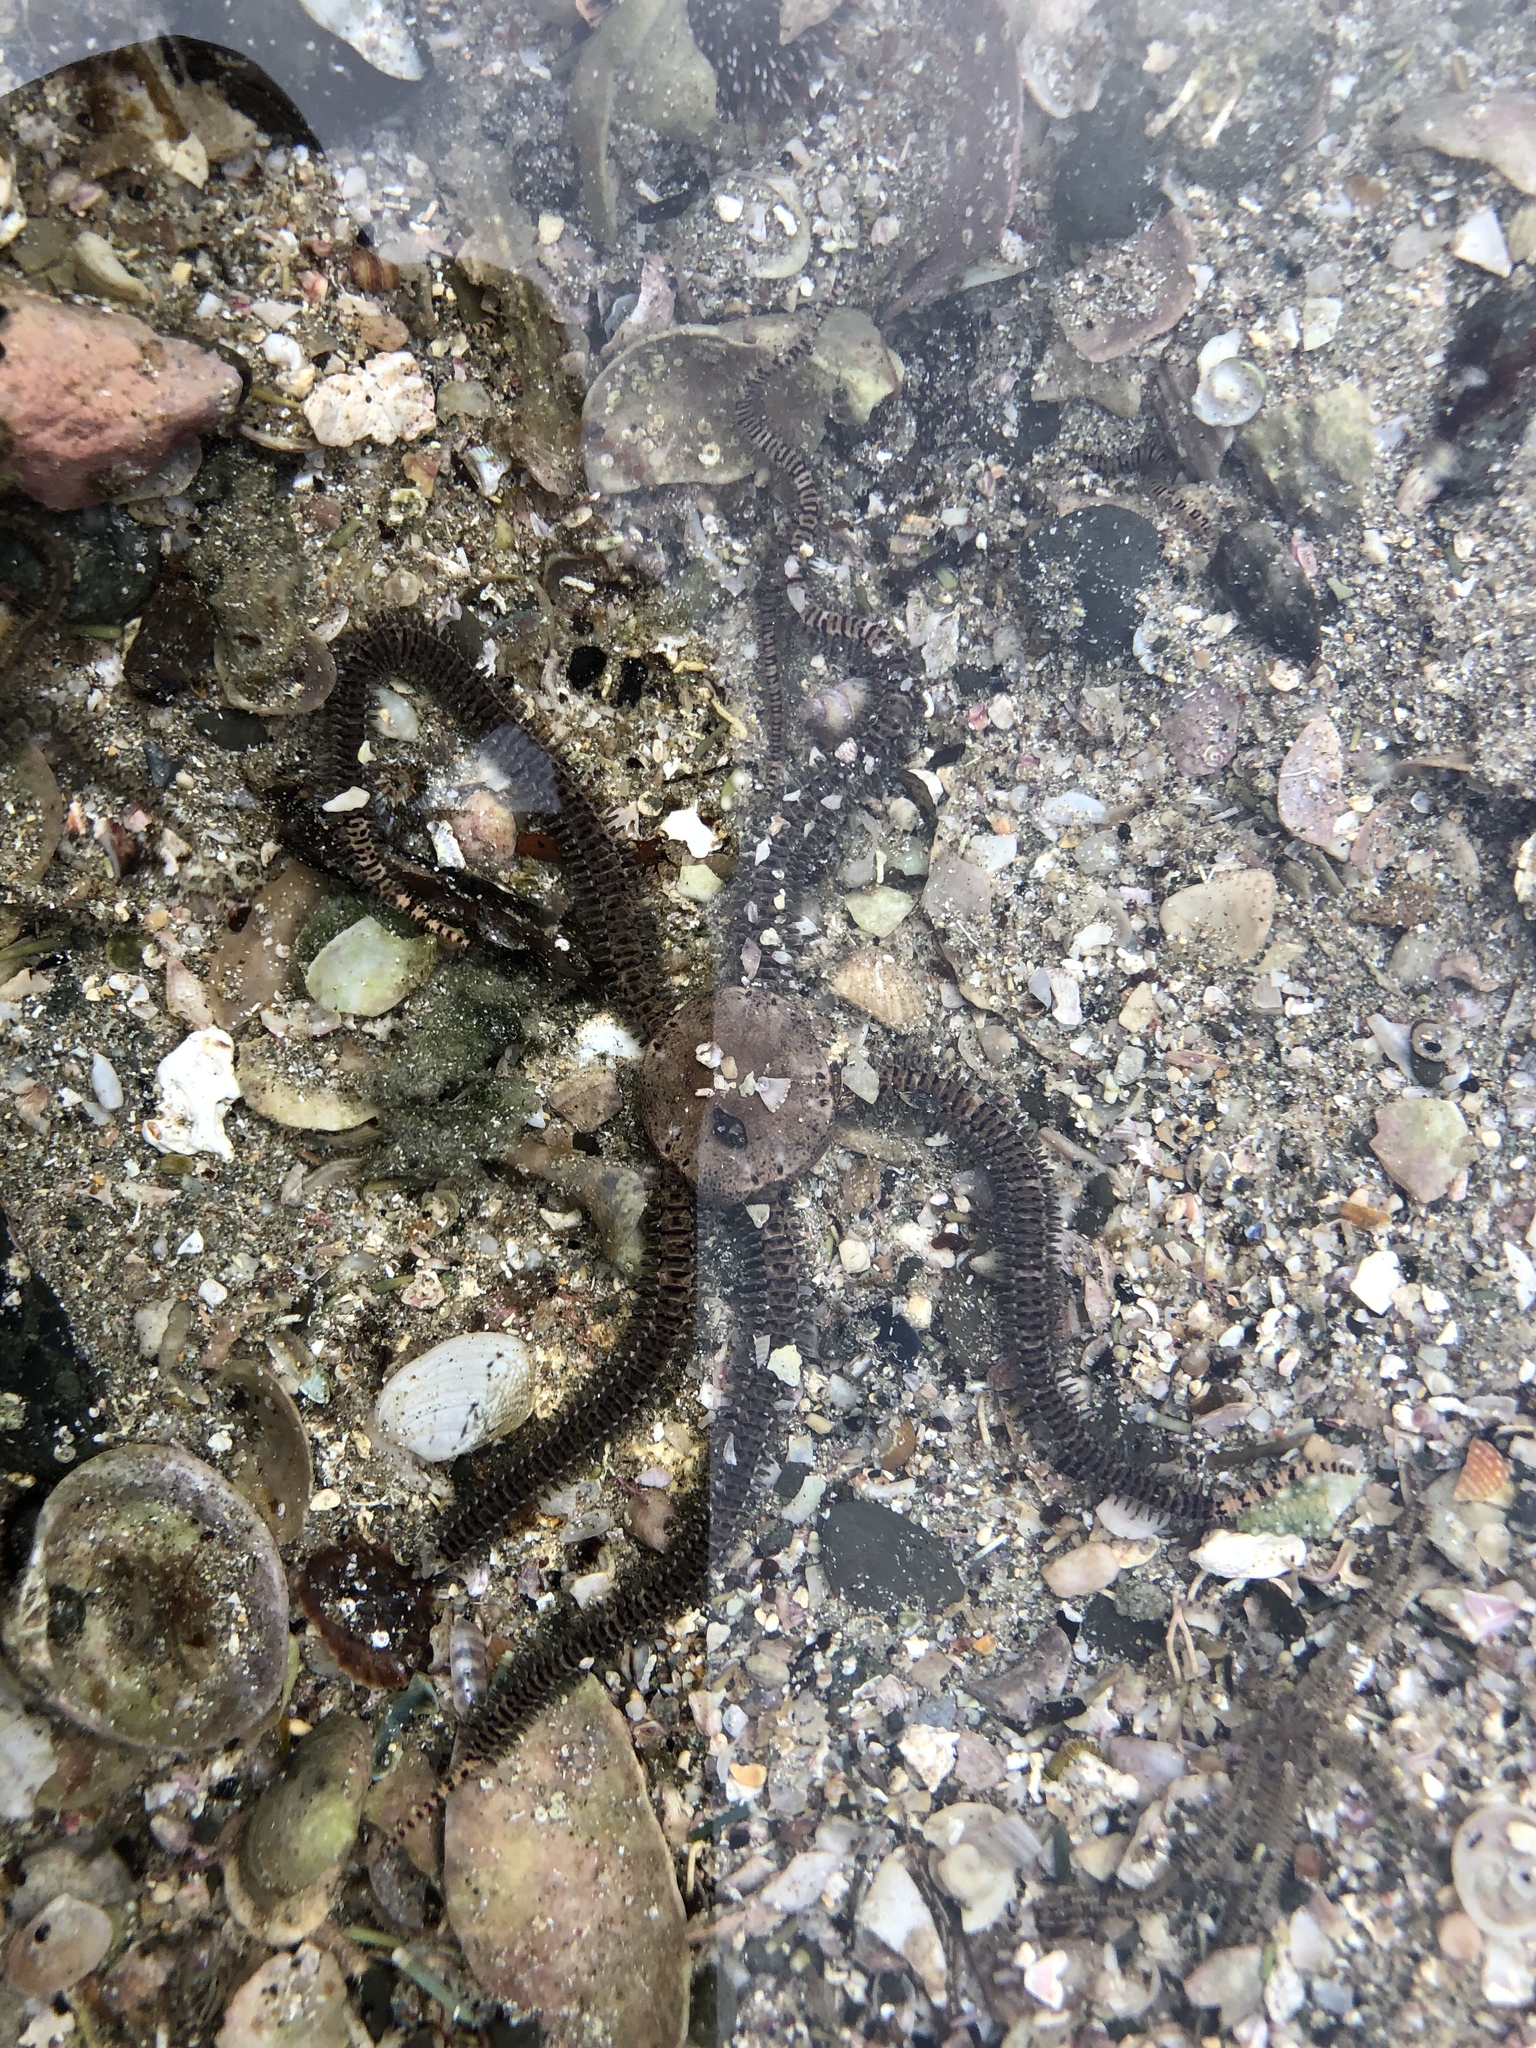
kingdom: Animalia
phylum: Echinodermata
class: Ophiuroidea
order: Amphilepidida
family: Ophionereididae
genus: Ophionereis
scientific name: Ophionereis fasciata
